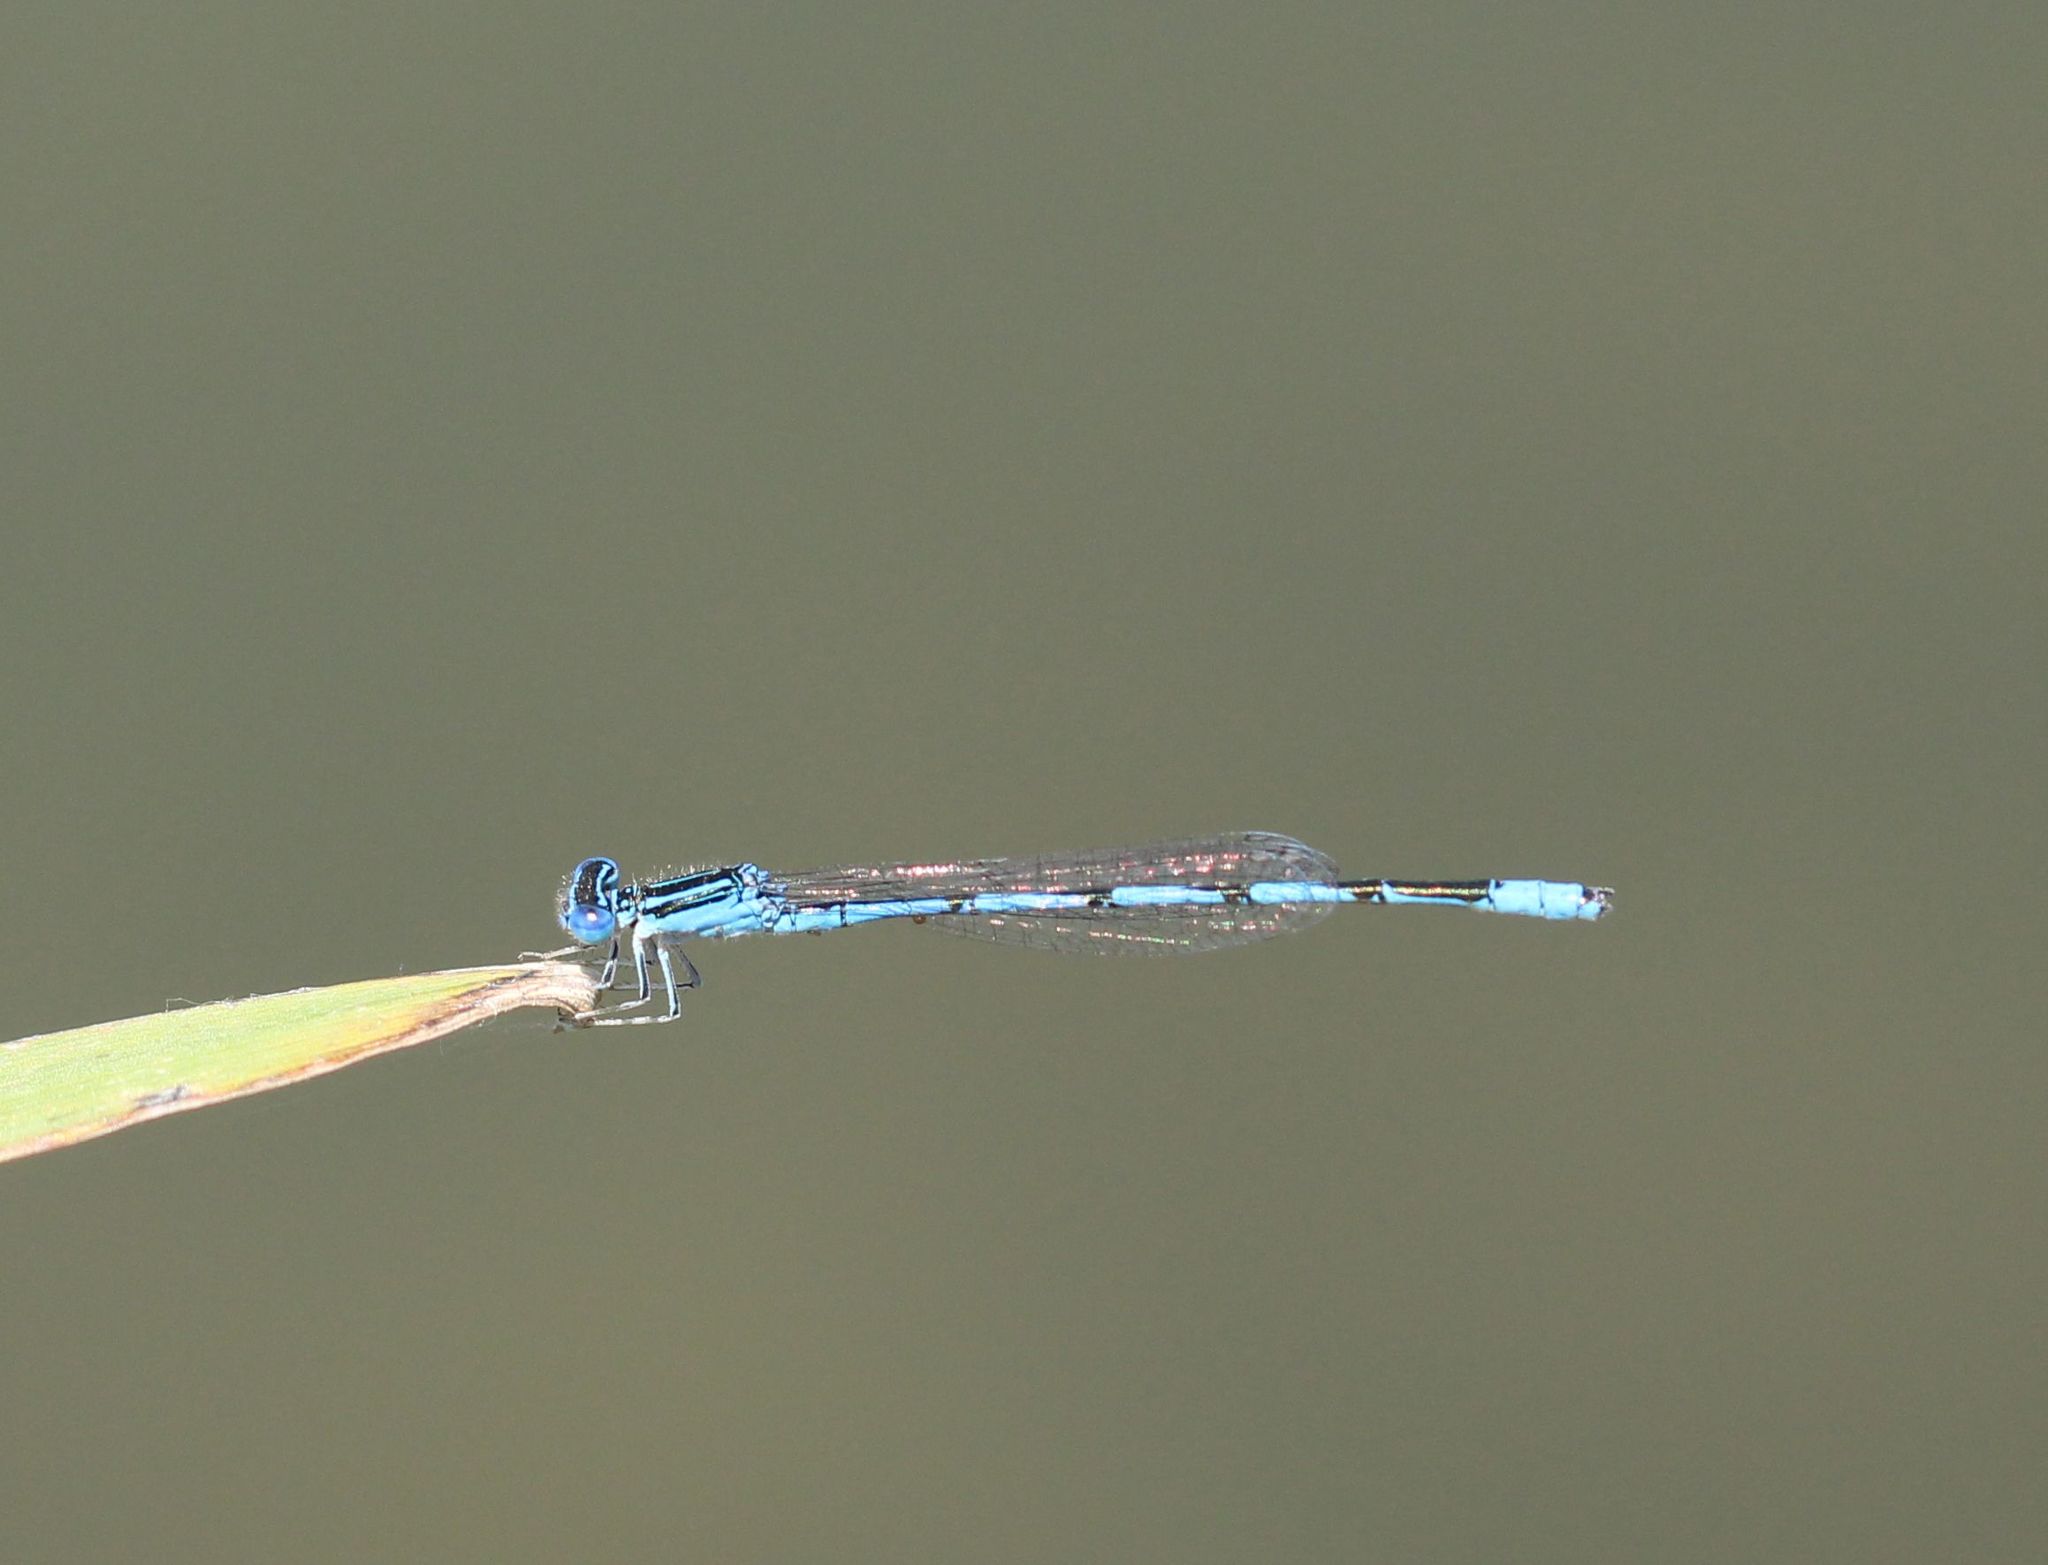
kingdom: Animalia
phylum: Arthropoda
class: Insecta
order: Odonata
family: Coenagrionidae
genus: Enallagma
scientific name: Enallagma basidens
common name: Double-striped bluet
